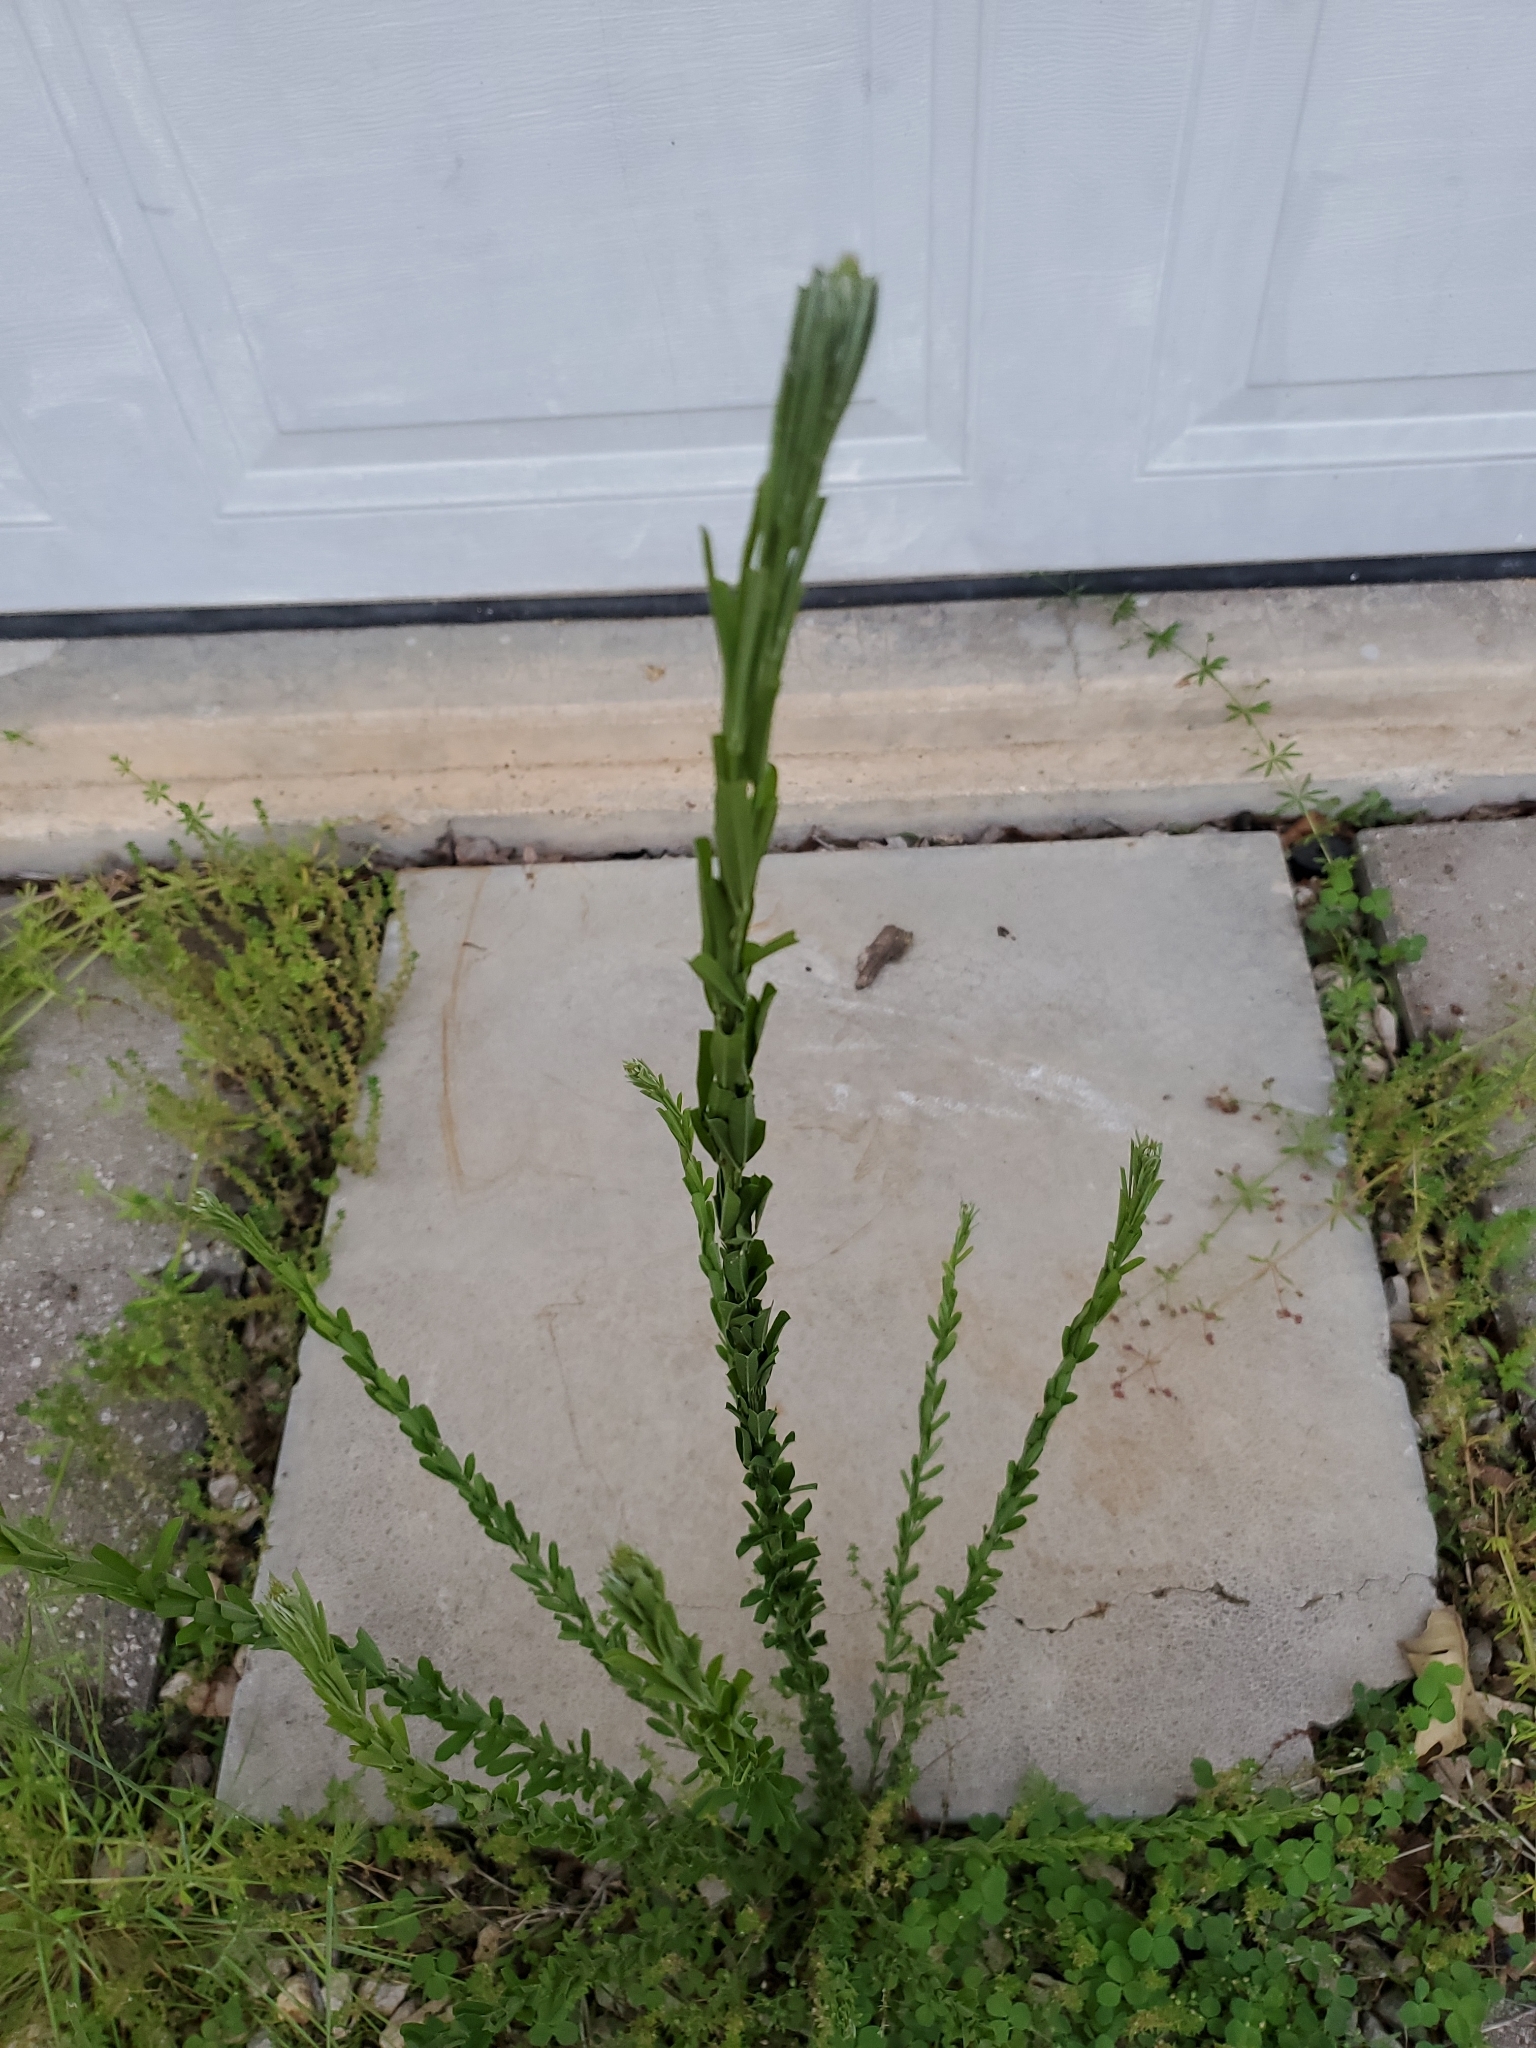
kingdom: Plantae
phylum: Tracheophyta
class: Magnoliopsida
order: Fabales
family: Fabaceae
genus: Lespedeza
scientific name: Lespedeza cuneata
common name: Chinese bush-clover
